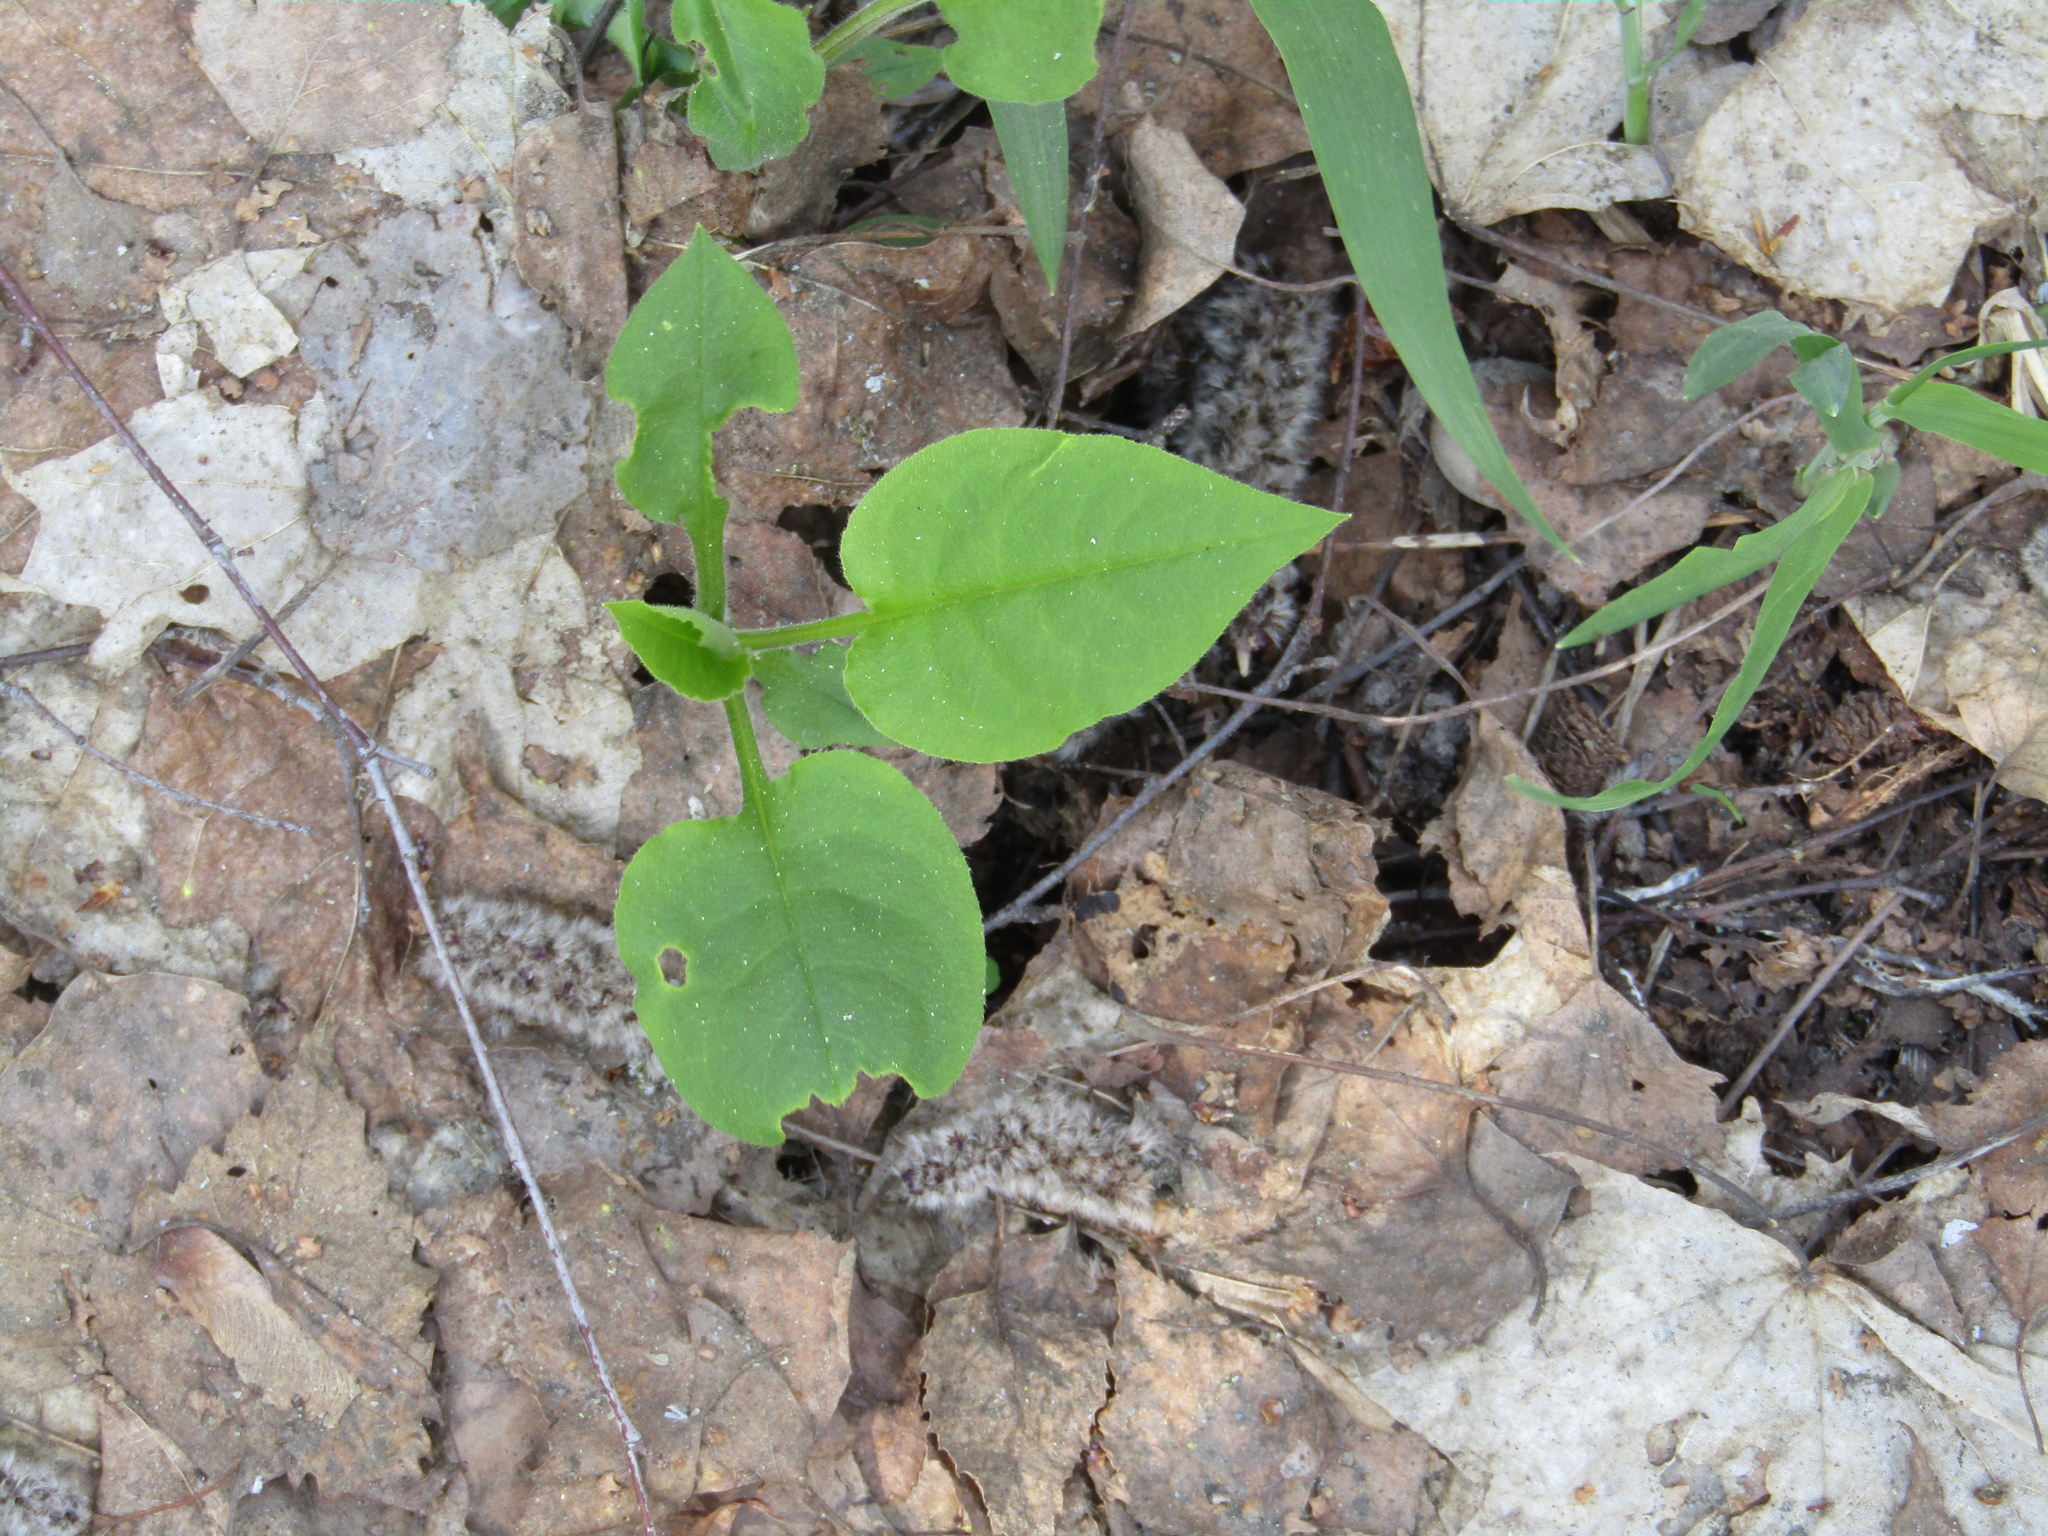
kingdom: Plantae
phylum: Tracheophyta
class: Magnoliopsida
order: Boraginales
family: Boraginaceae
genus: Pulmonaria
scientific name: Pulmonaria obscura
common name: Suffolk lungwort
